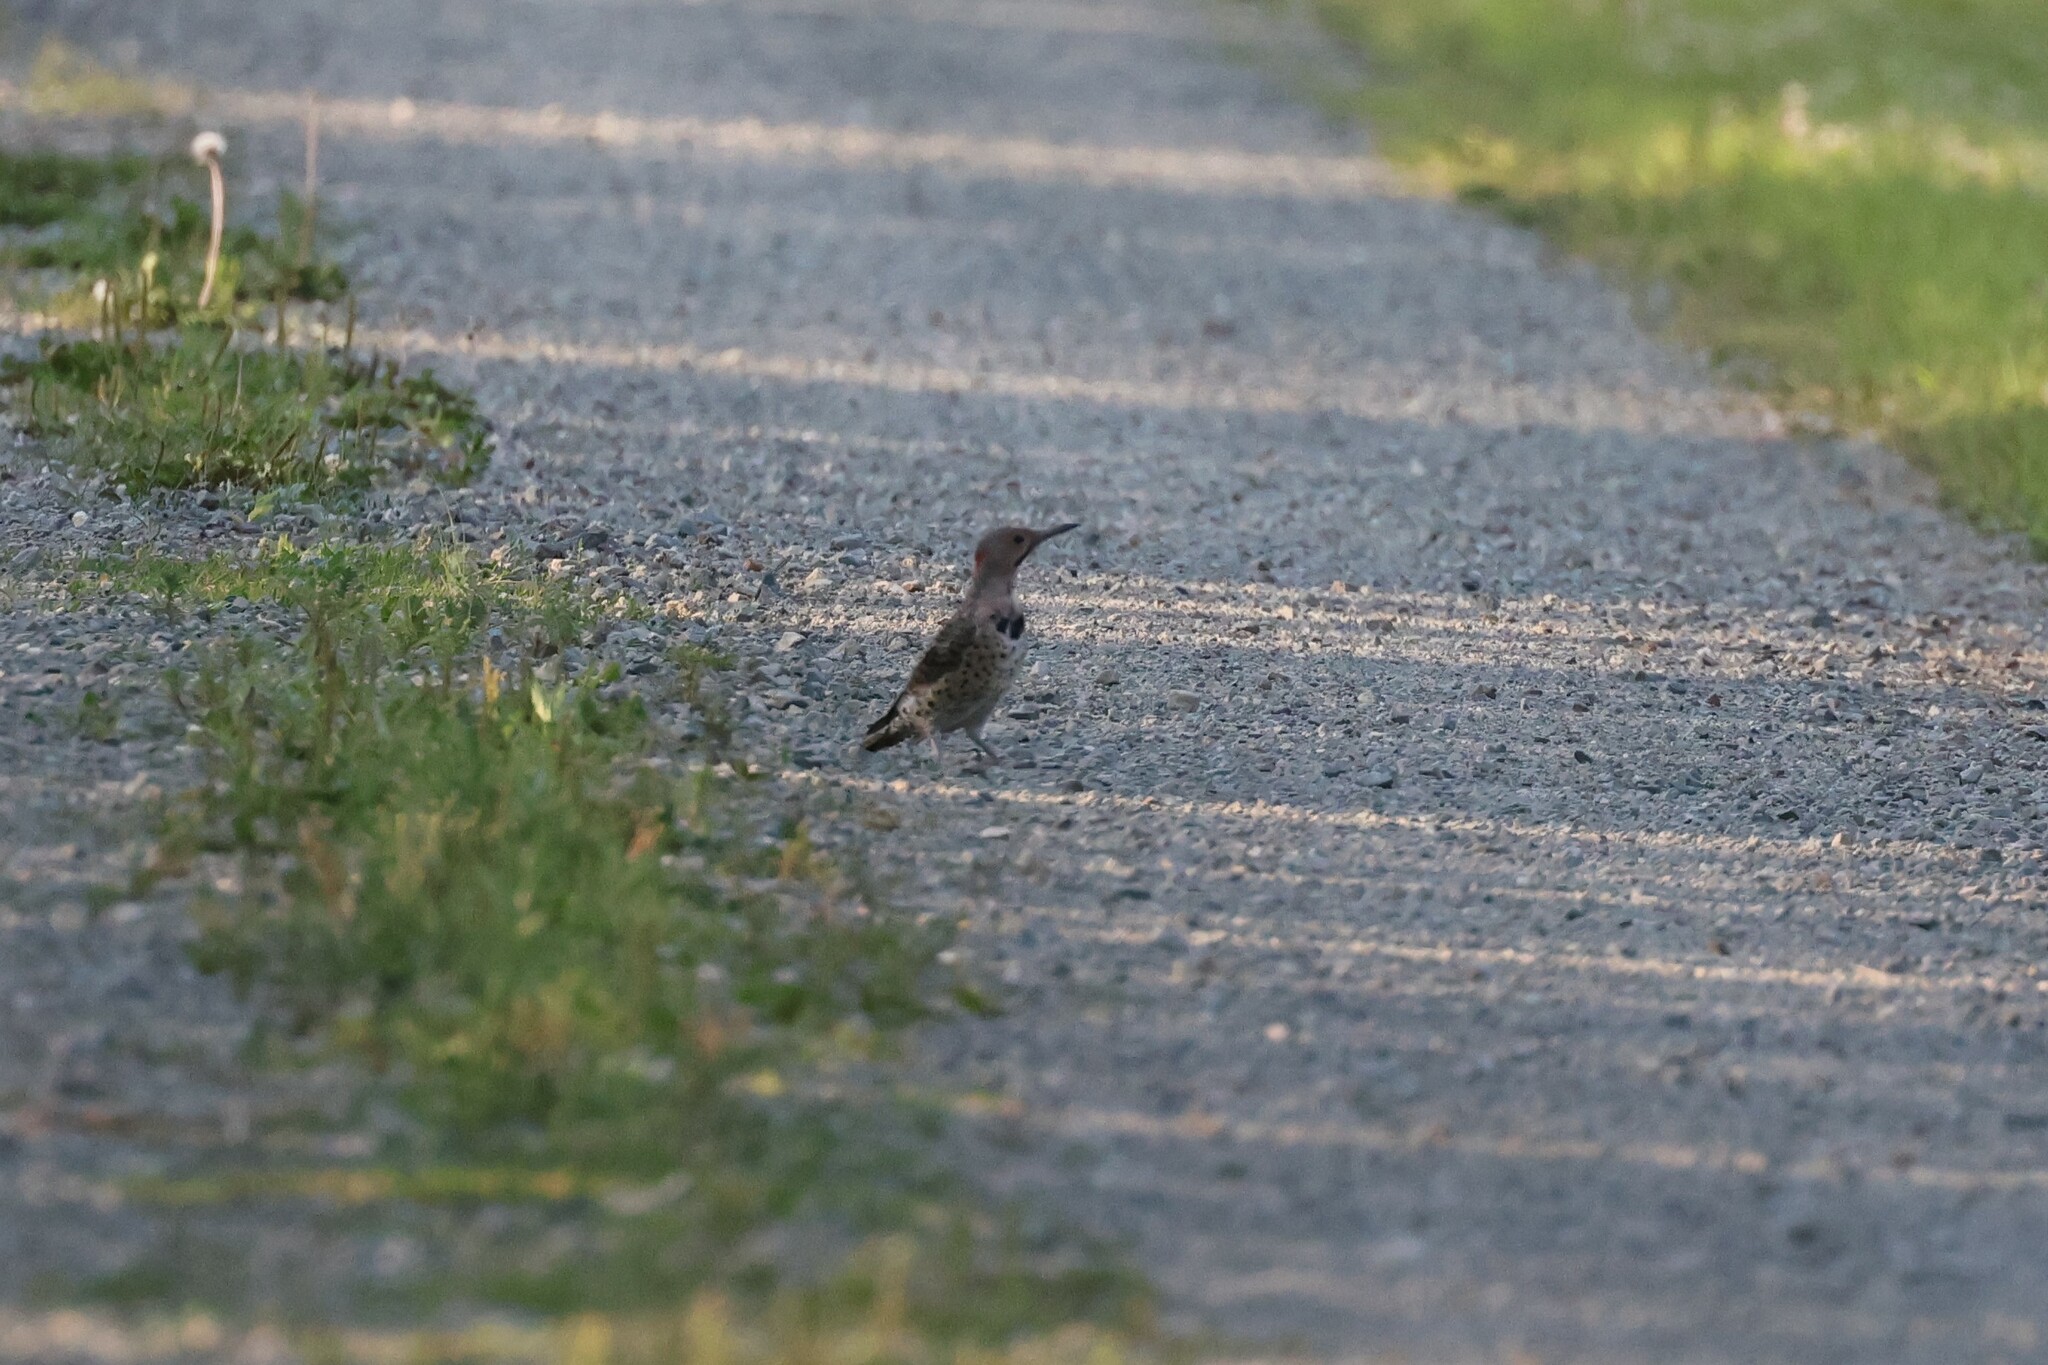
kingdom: Animalia
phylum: Chordata
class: Aves
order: Piciformes
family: Picidae
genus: Colaptes
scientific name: Colaptes auratus
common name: Northern flicker
